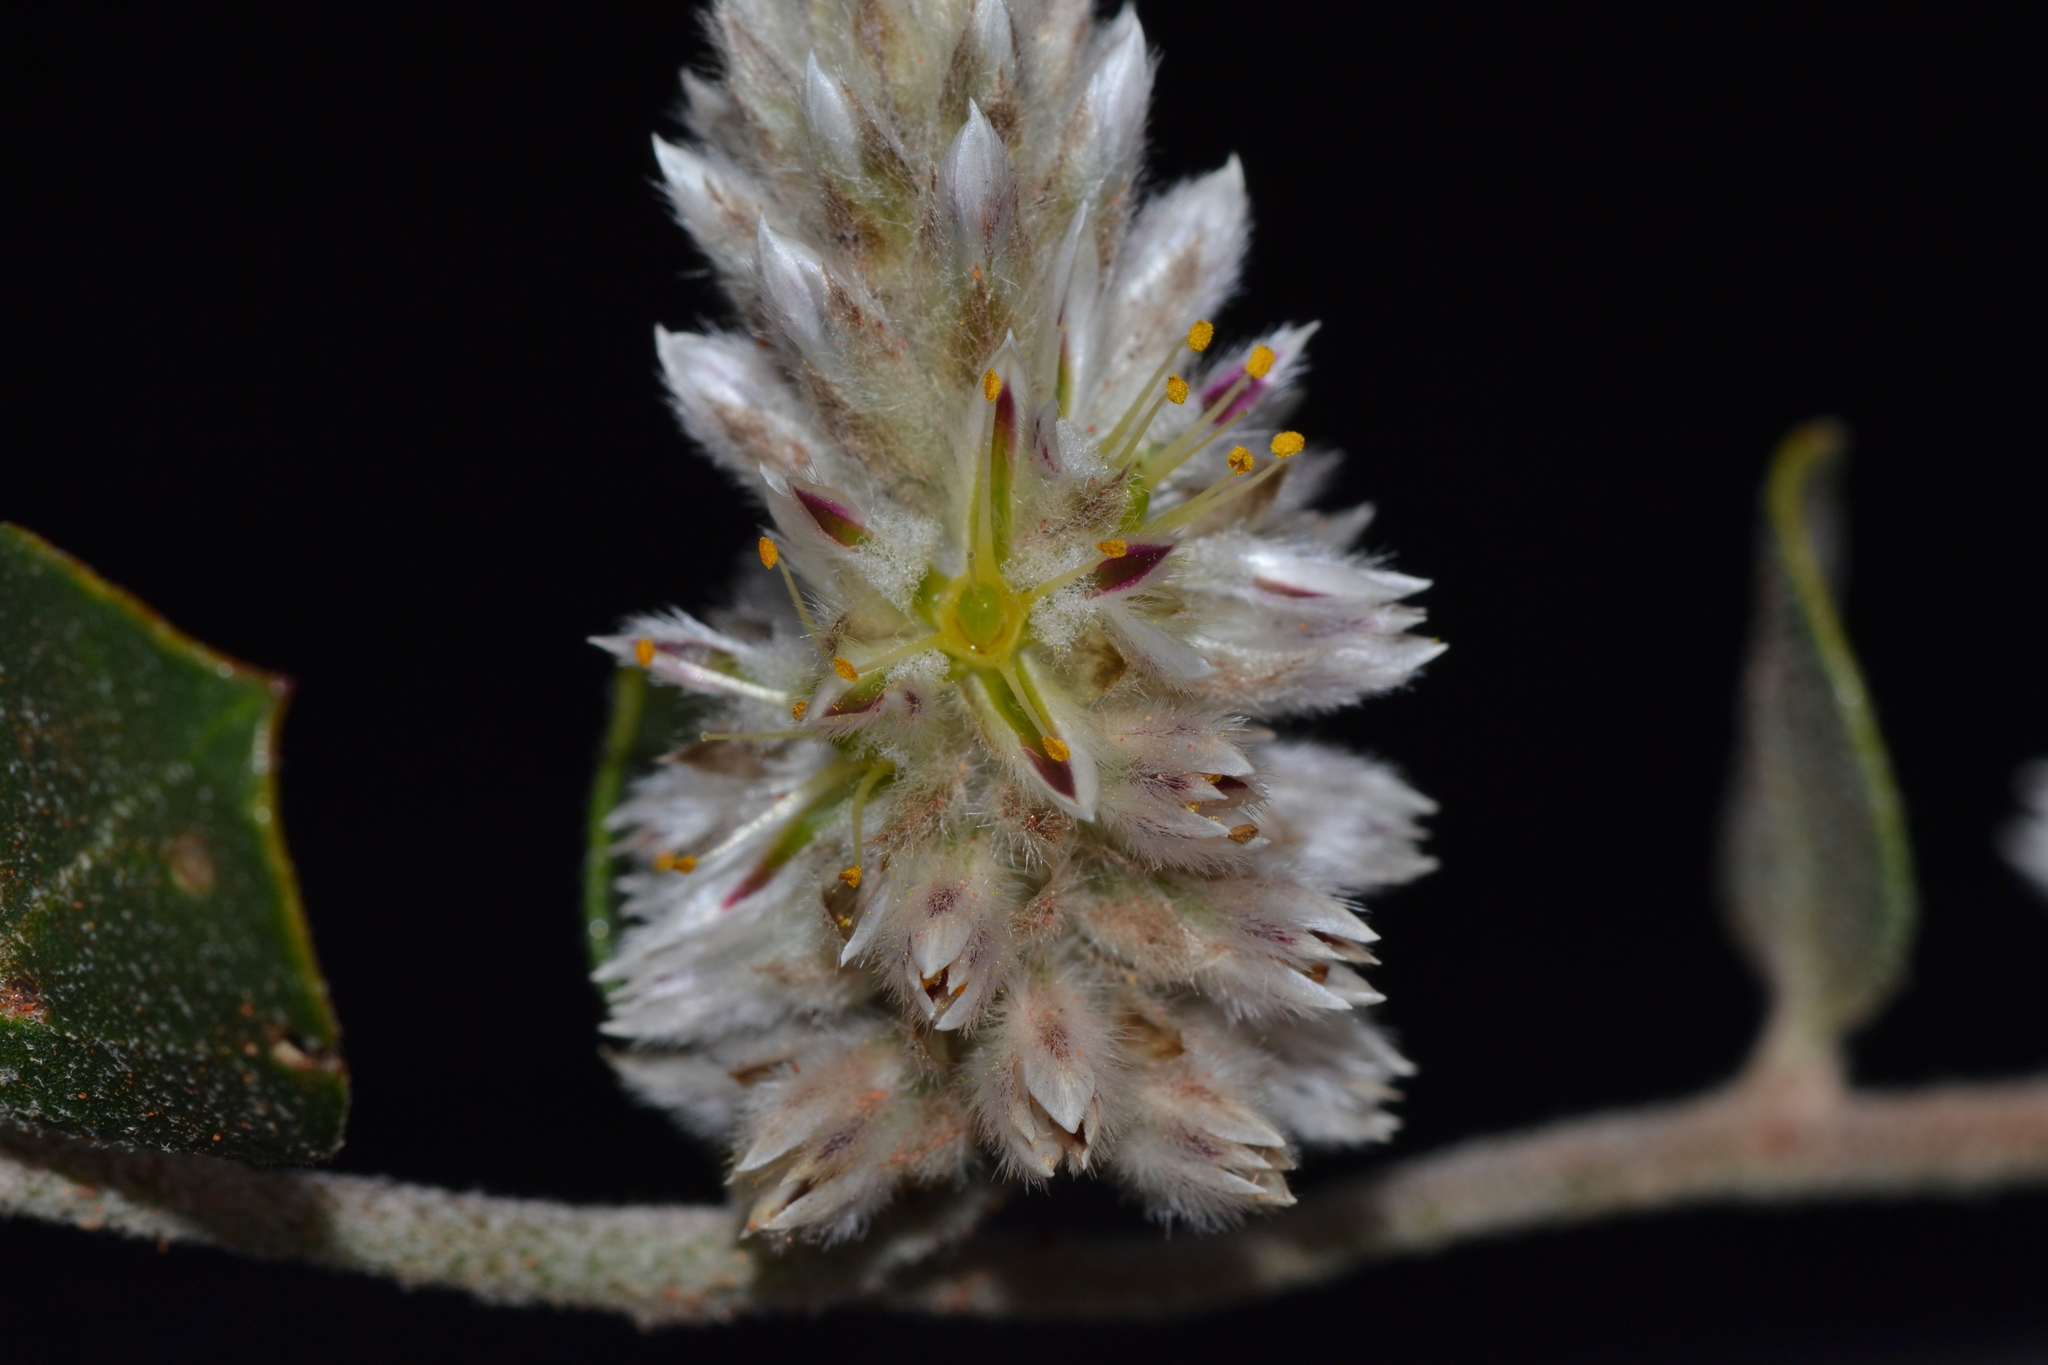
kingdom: Plantae
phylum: Tracheophyta
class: Magnoliopsida
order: Caryophyllales
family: Amaranthaceae
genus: Ptilotus
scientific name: Ptilotus roei
